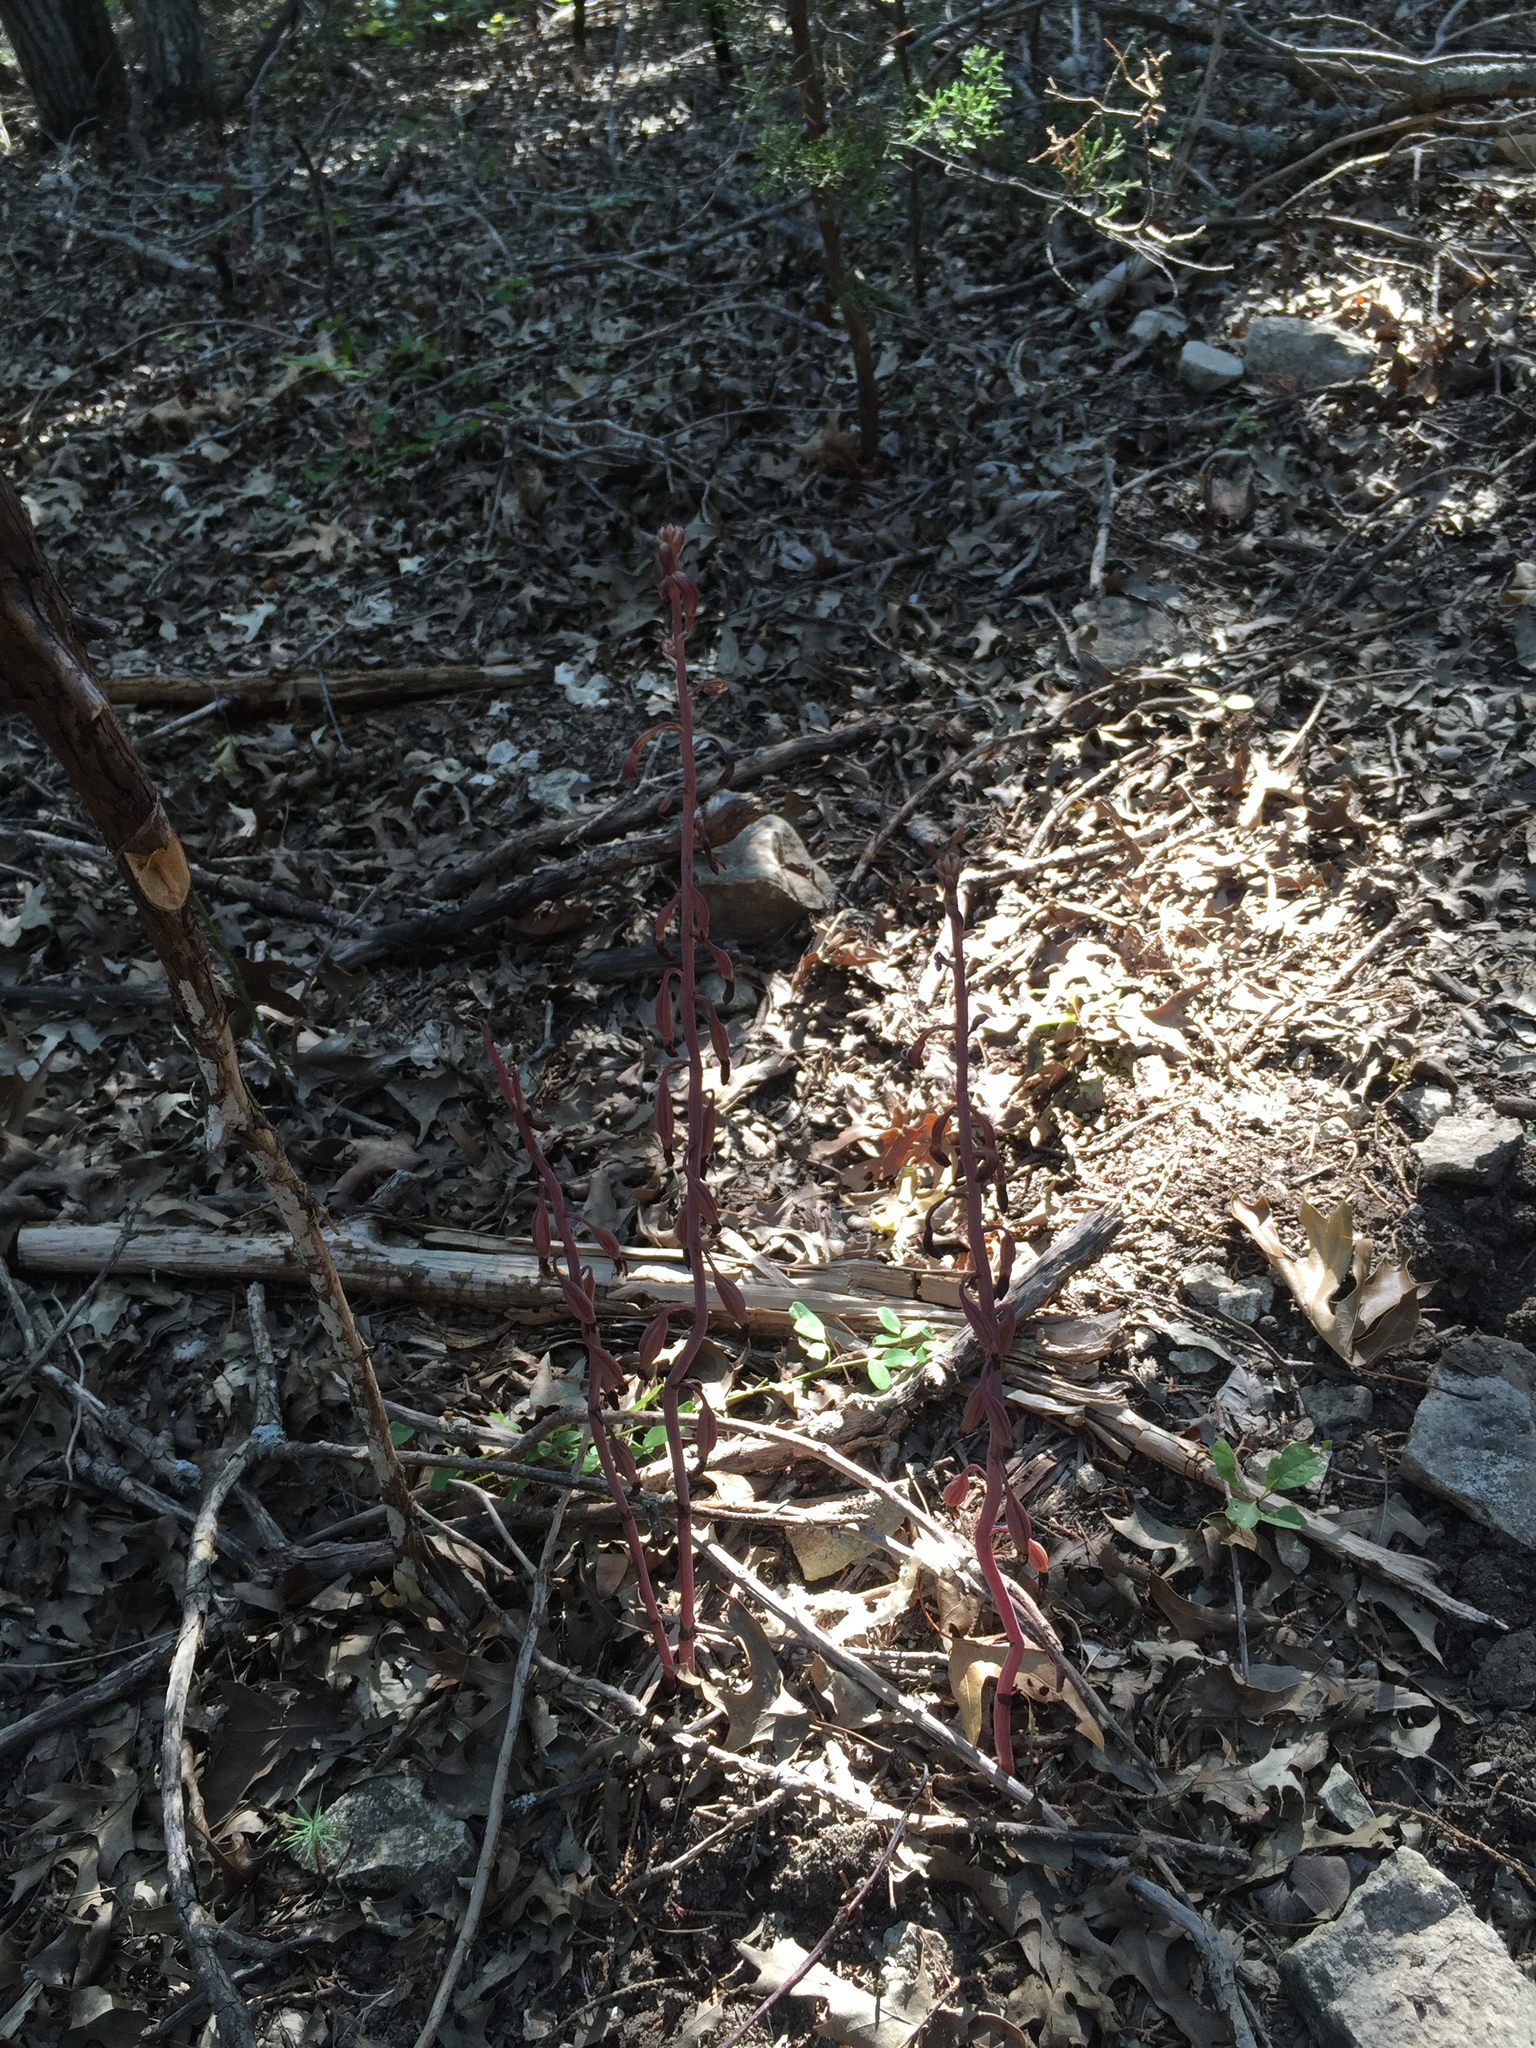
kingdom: Plantae
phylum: Tracheophyta
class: Liliopsida
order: Asparagales
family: Orchidaceae
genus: Bletia
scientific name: Bletia nitida
